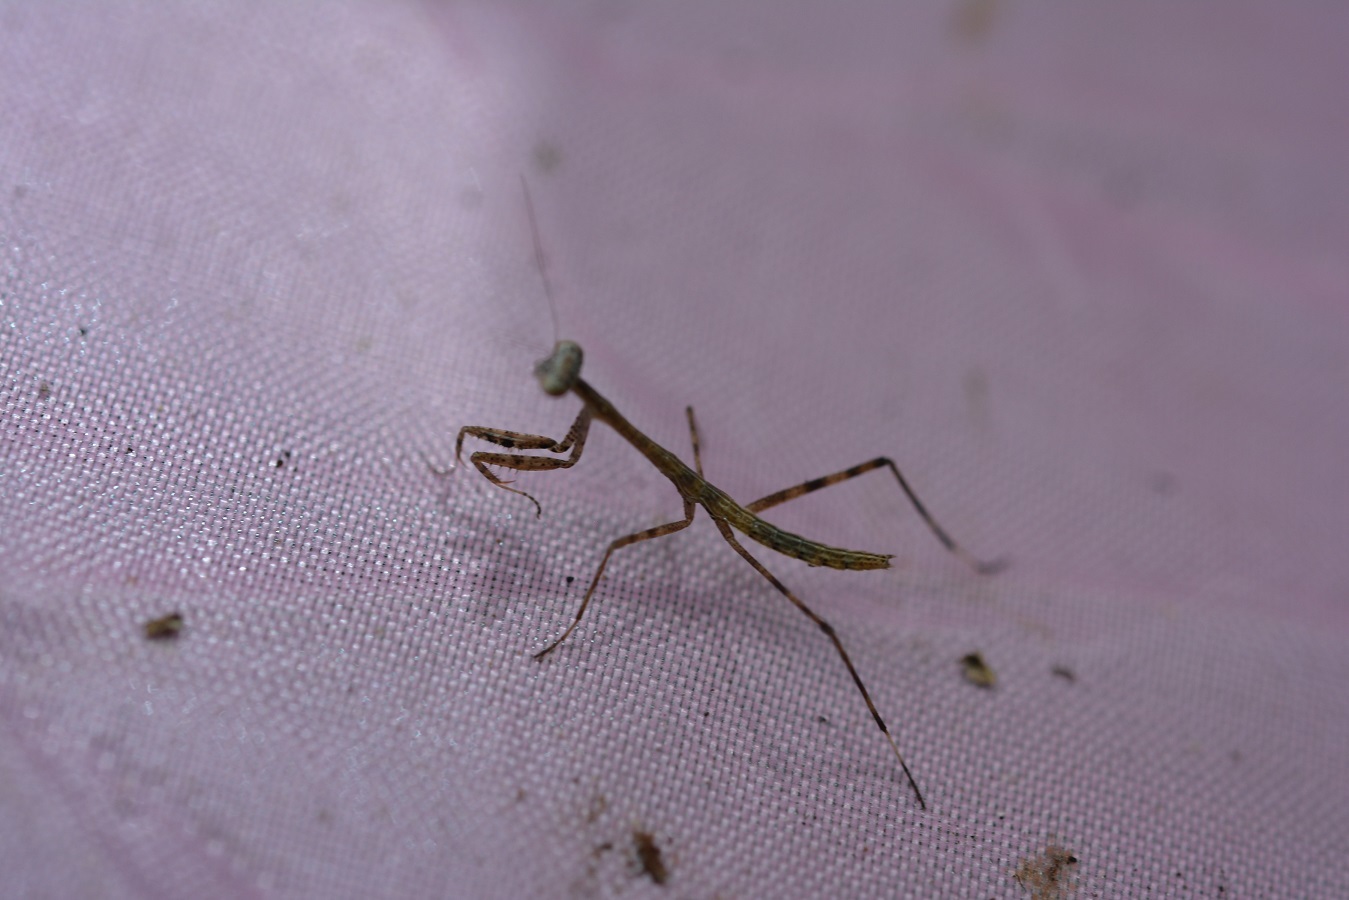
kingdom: Animalia
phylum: Arthropoda
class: Insecta
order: Mantodea
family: Mantidae
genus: Phasmomantis
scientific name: Phasmomantis sumichrasti
